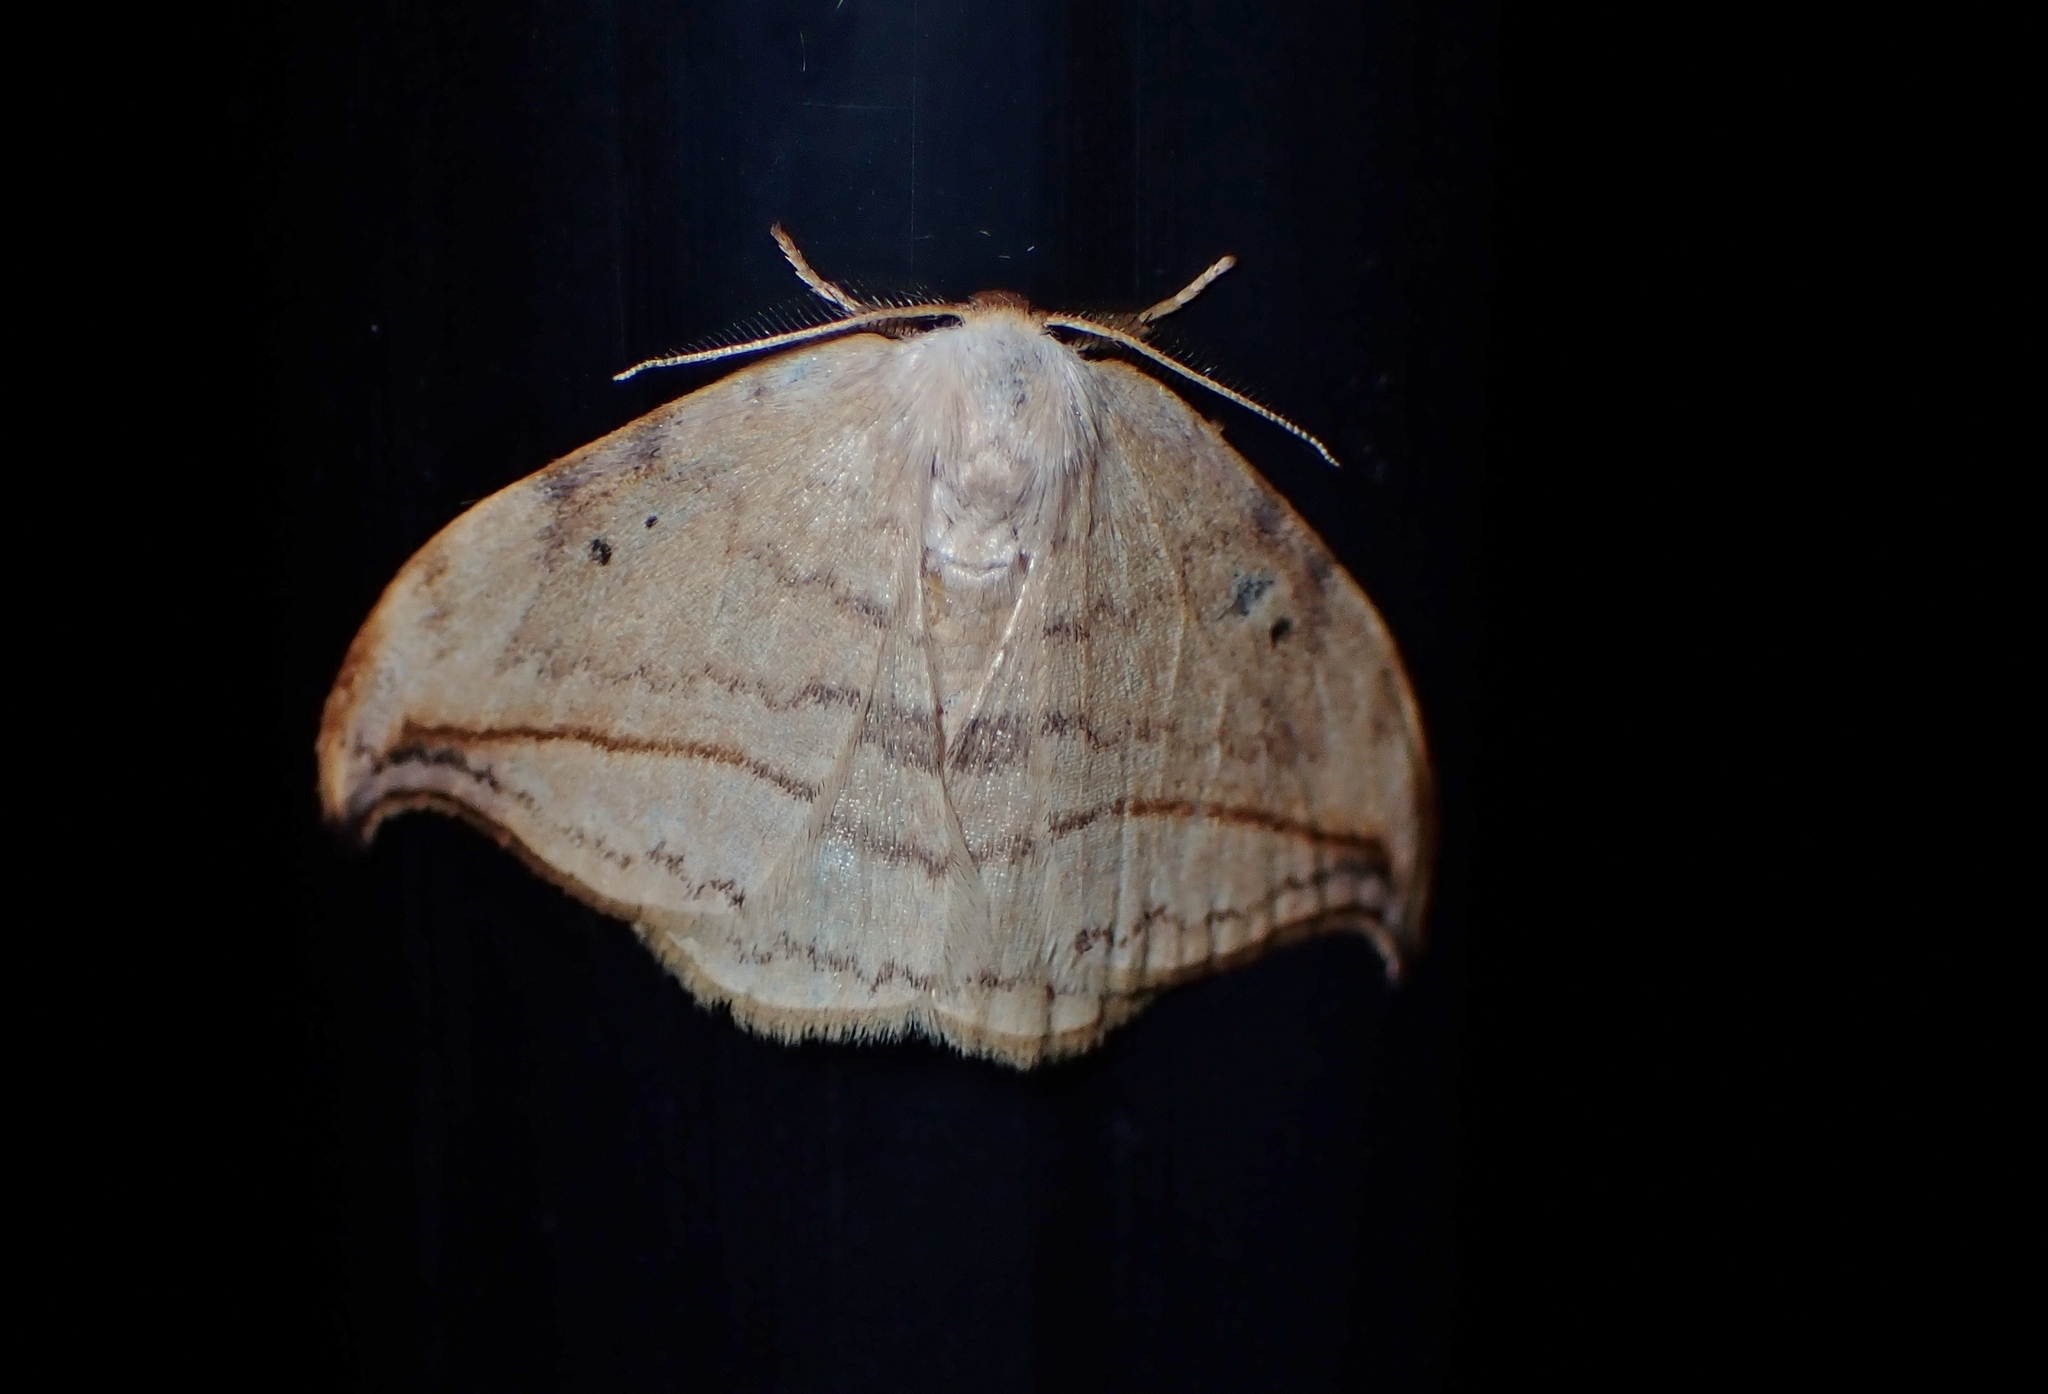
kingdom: Animalia
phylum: Arthropoda
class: Insecta
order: Lepidoptera
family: Drepanidae
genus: Drepana
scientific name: Drepana arcuata
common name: Arched hooktip moth
